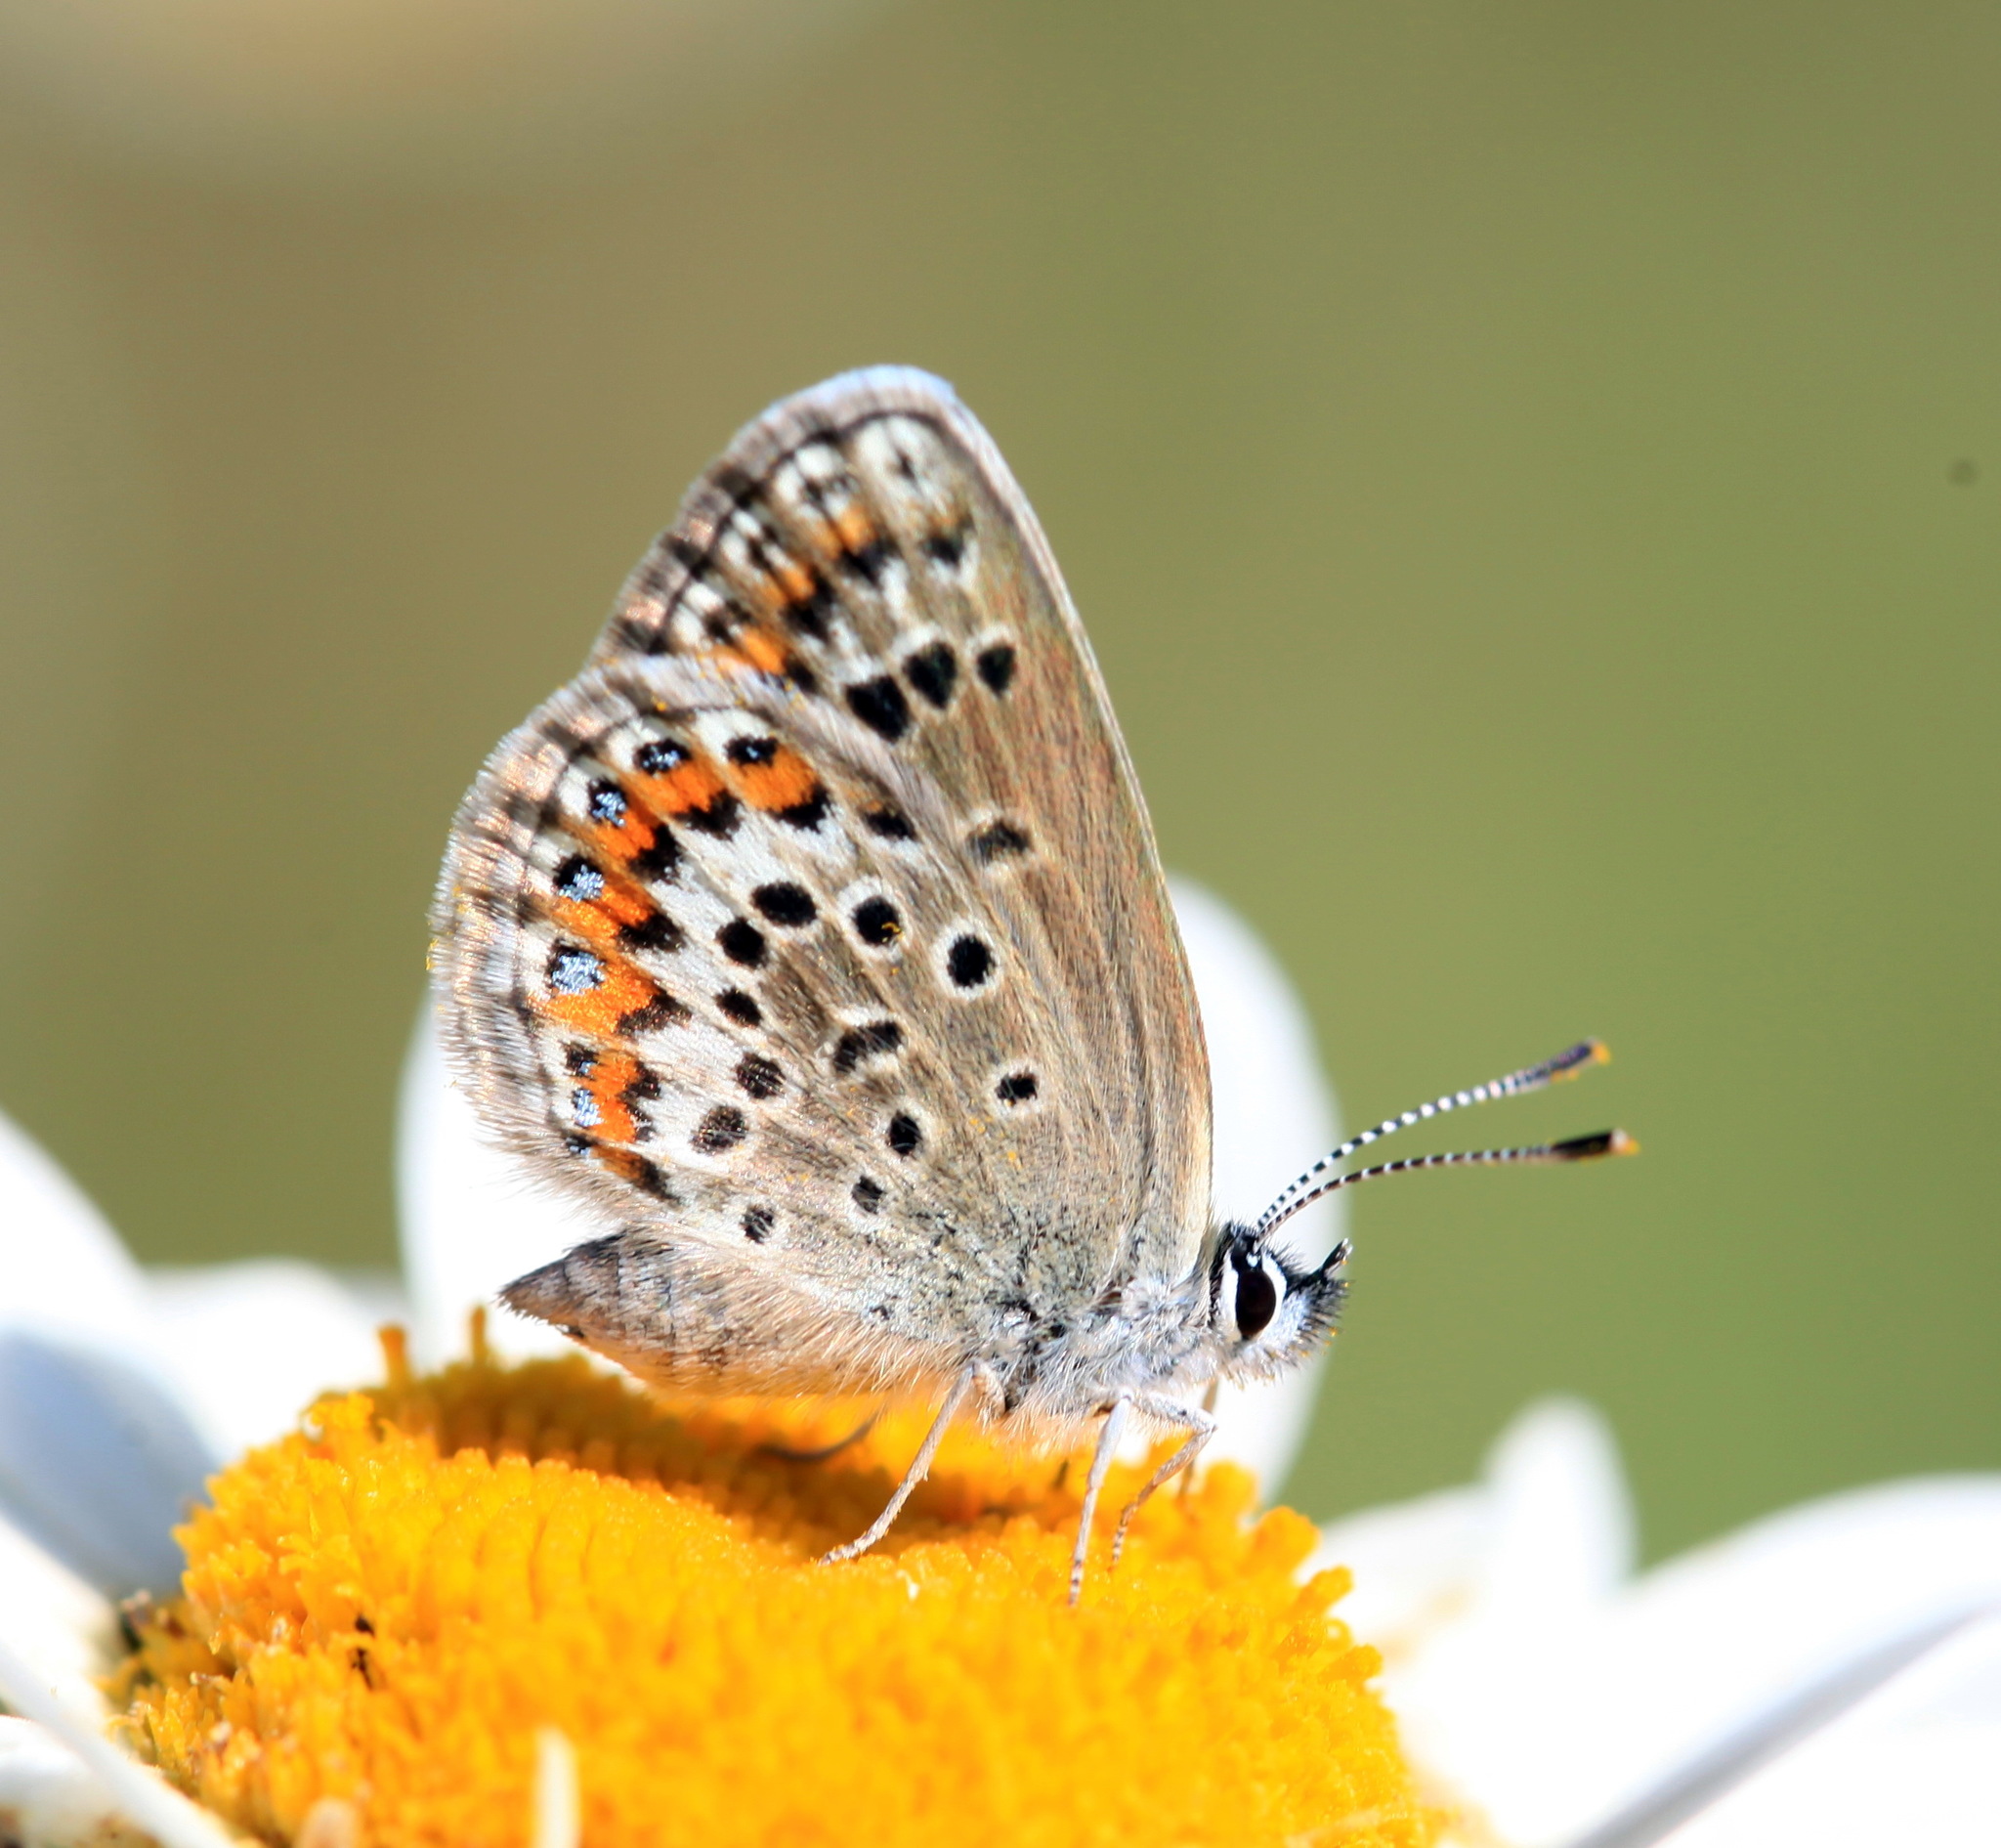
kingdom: Animalia
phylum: Arthropoda
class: Insecta
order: Lepidoptera
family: Lycaenidae
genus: Plebejus
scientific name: Plebejus argus
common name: Silver-studded blue
